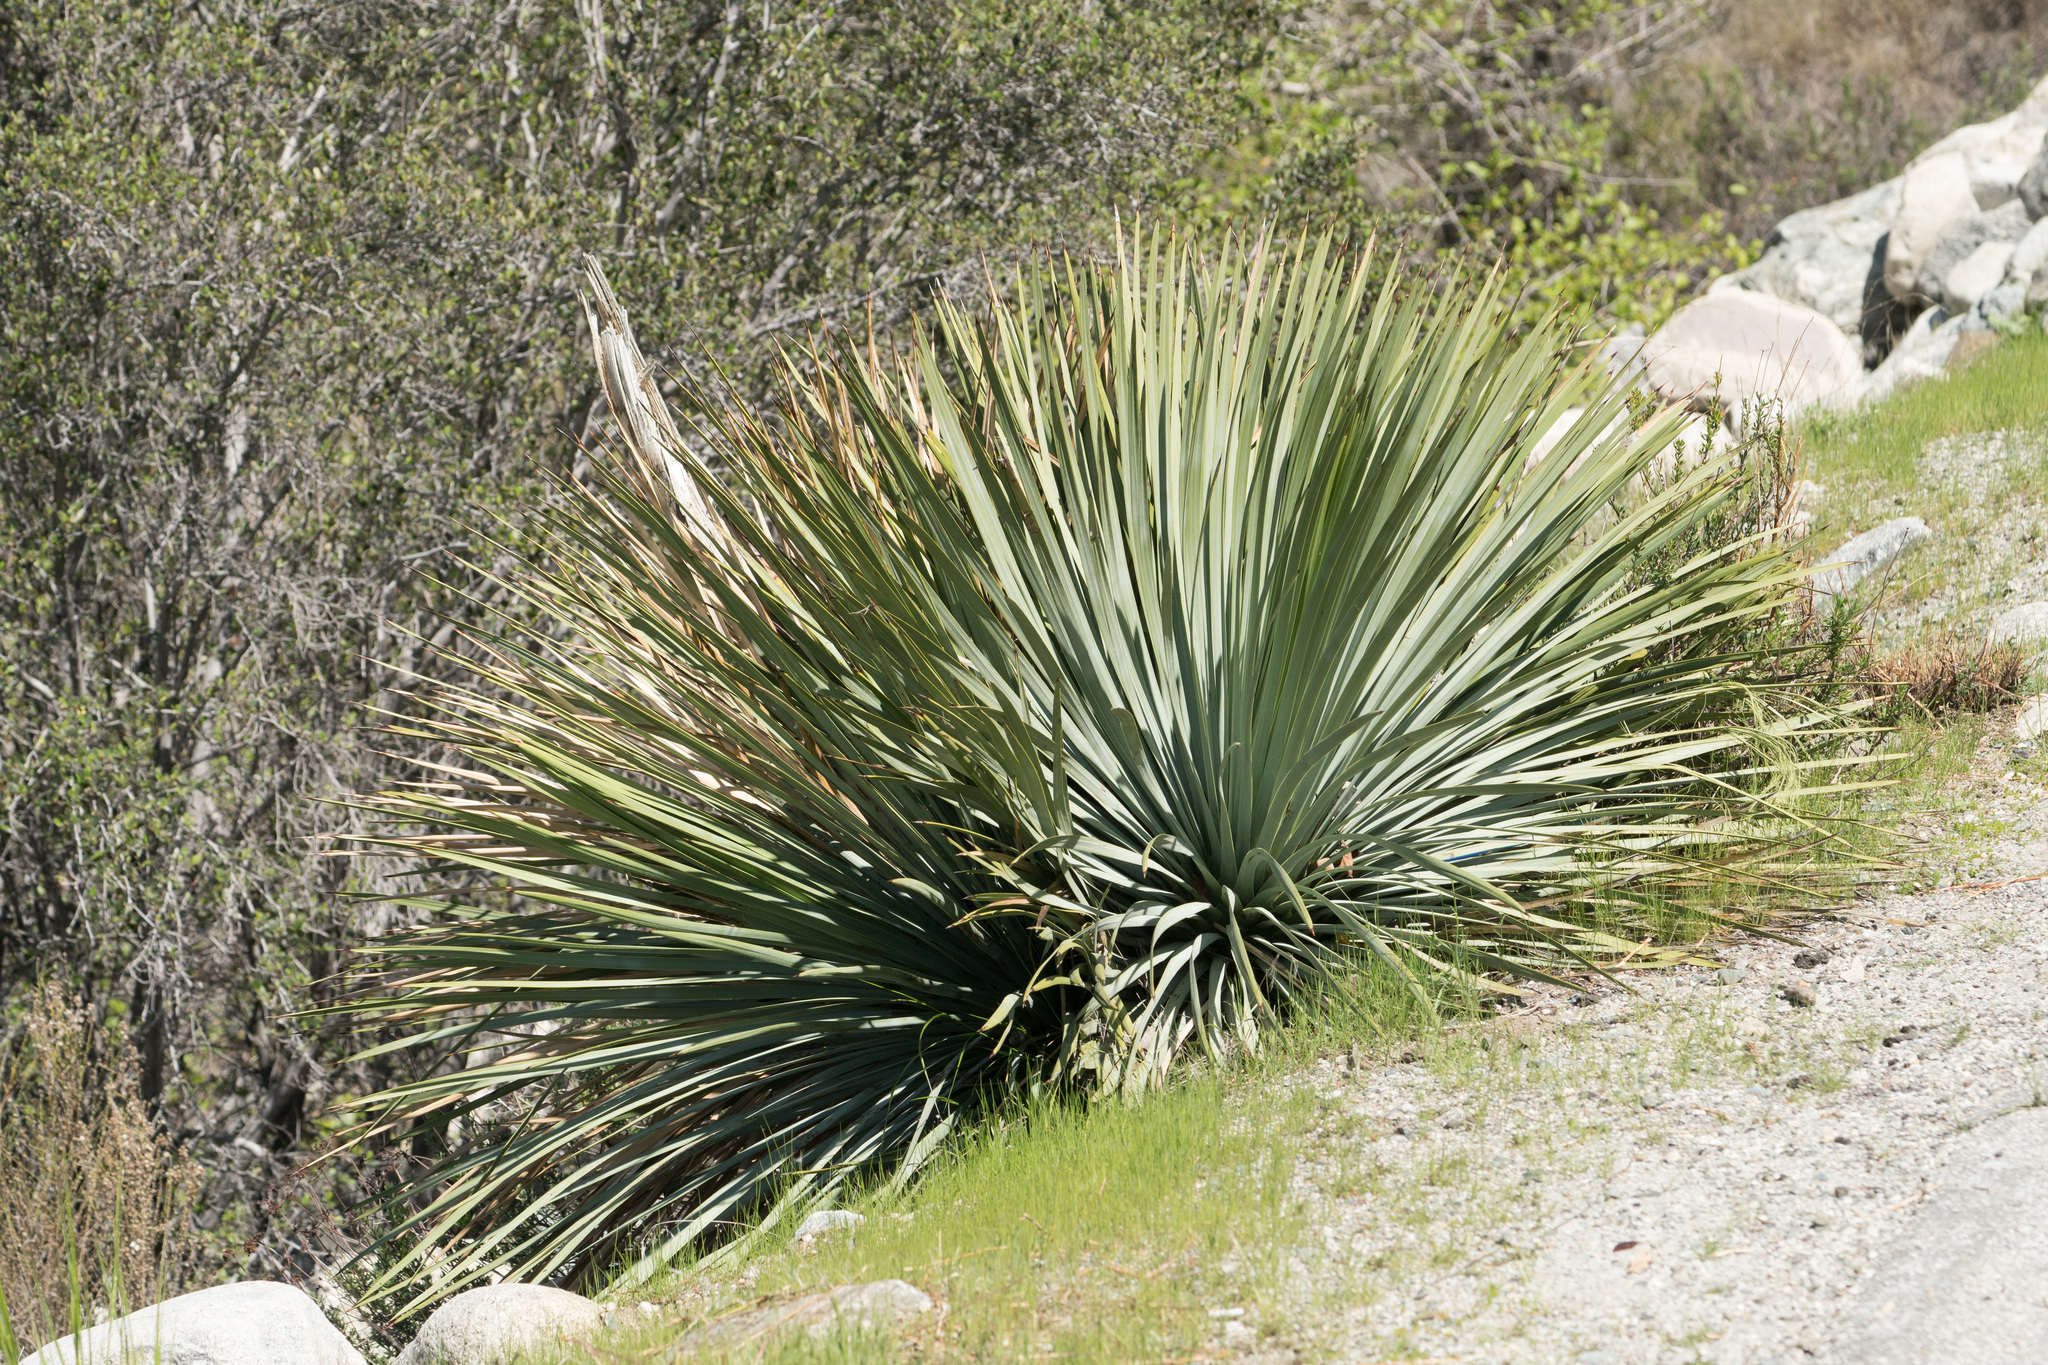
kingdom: Plantae
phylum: Tracheophyta
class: Liliopsida
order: Asparagales
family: Asparagaceae
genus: Hesperoyucca
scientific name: Hesperoyucca whipplei
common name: Our lord's-candle
